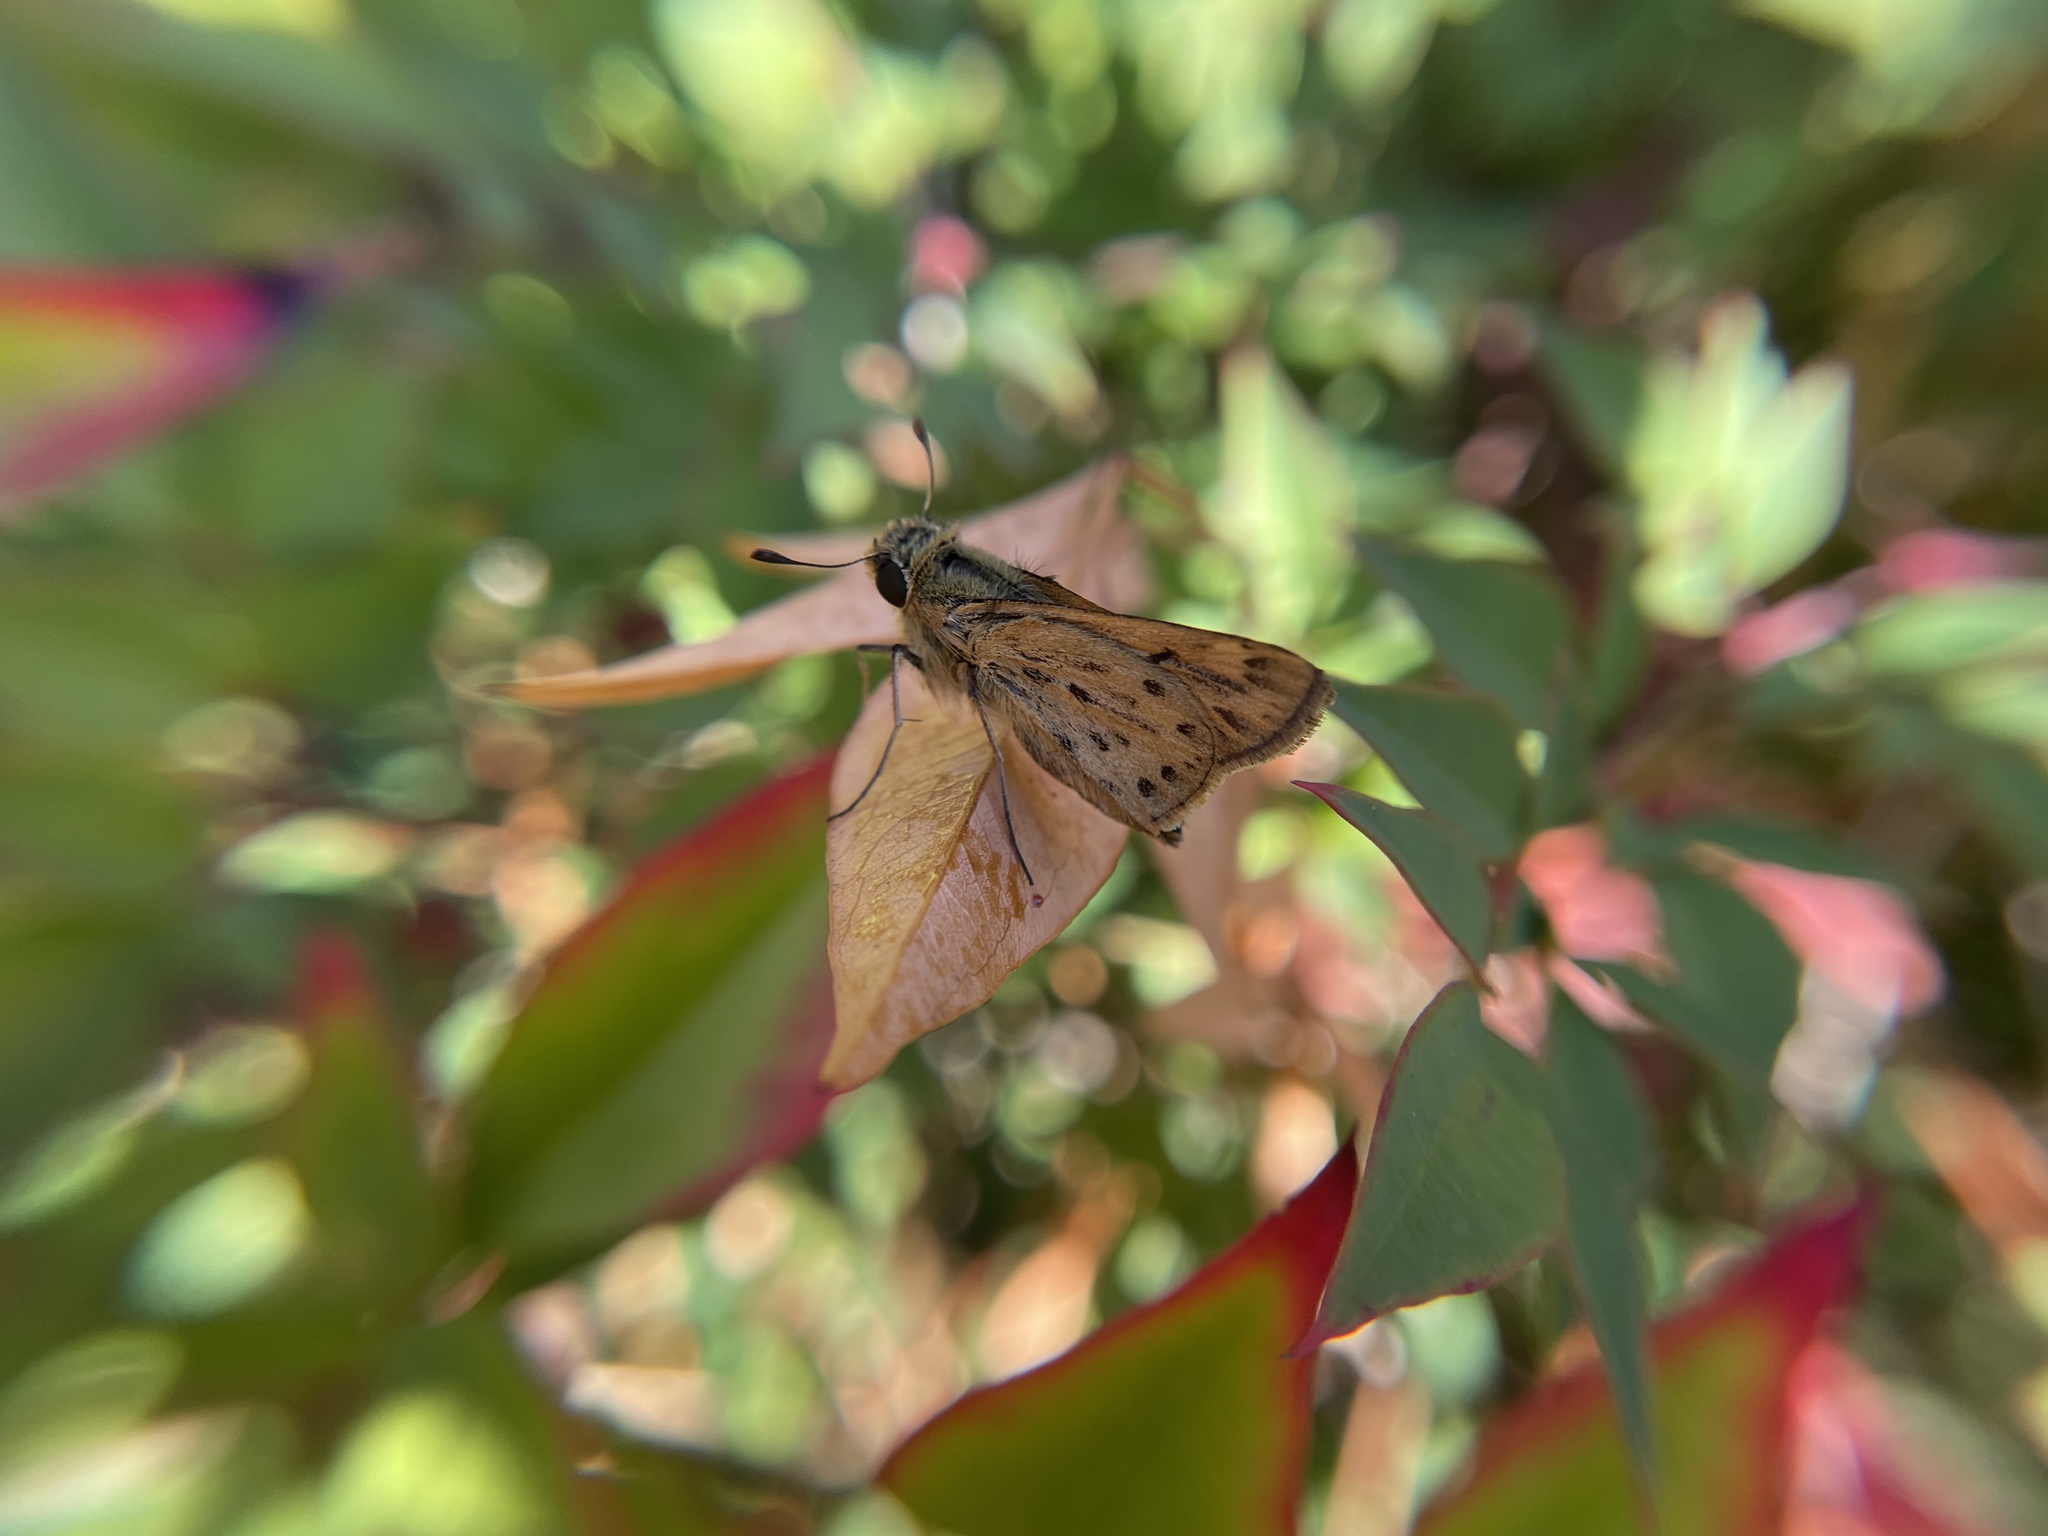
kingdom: Animalia
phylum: Arthropoda
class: Insecta
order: Lepidoptera
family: Hesperiidae
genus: Hylephila
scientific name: Hylephila phyleus
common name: Fiery skipper
